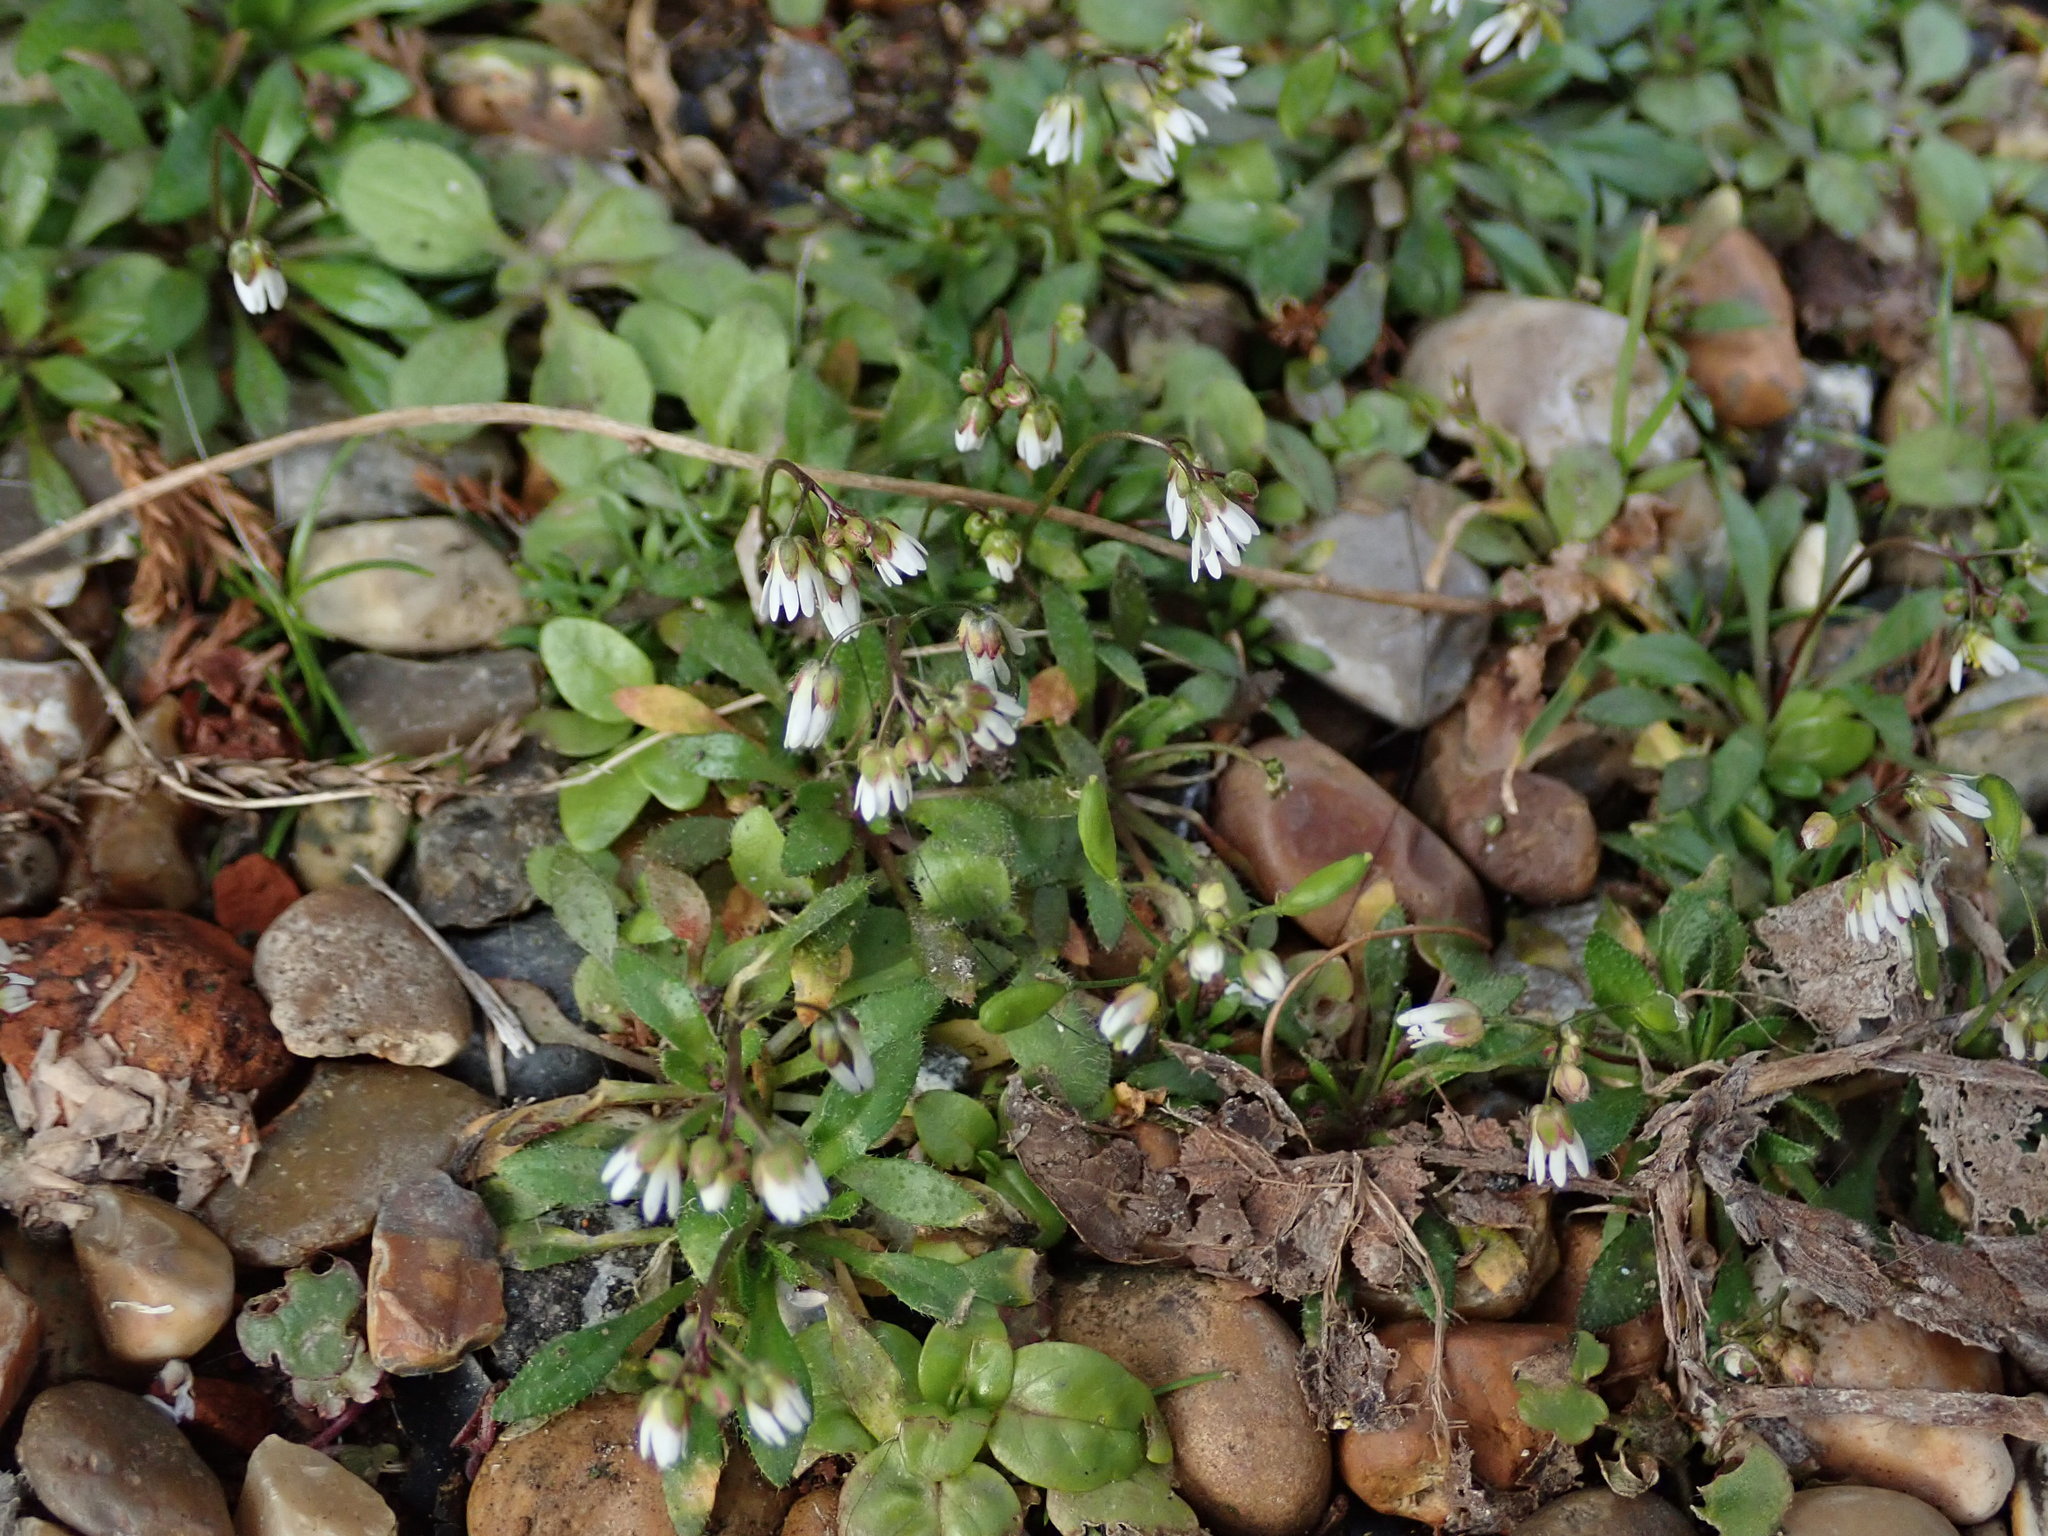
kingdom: Plantae
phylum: Tracheophyta
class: Magnoliopsida
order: Brassicales
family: Brassicaceae
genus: Draba
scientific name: Draba verna
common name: Spring draba
